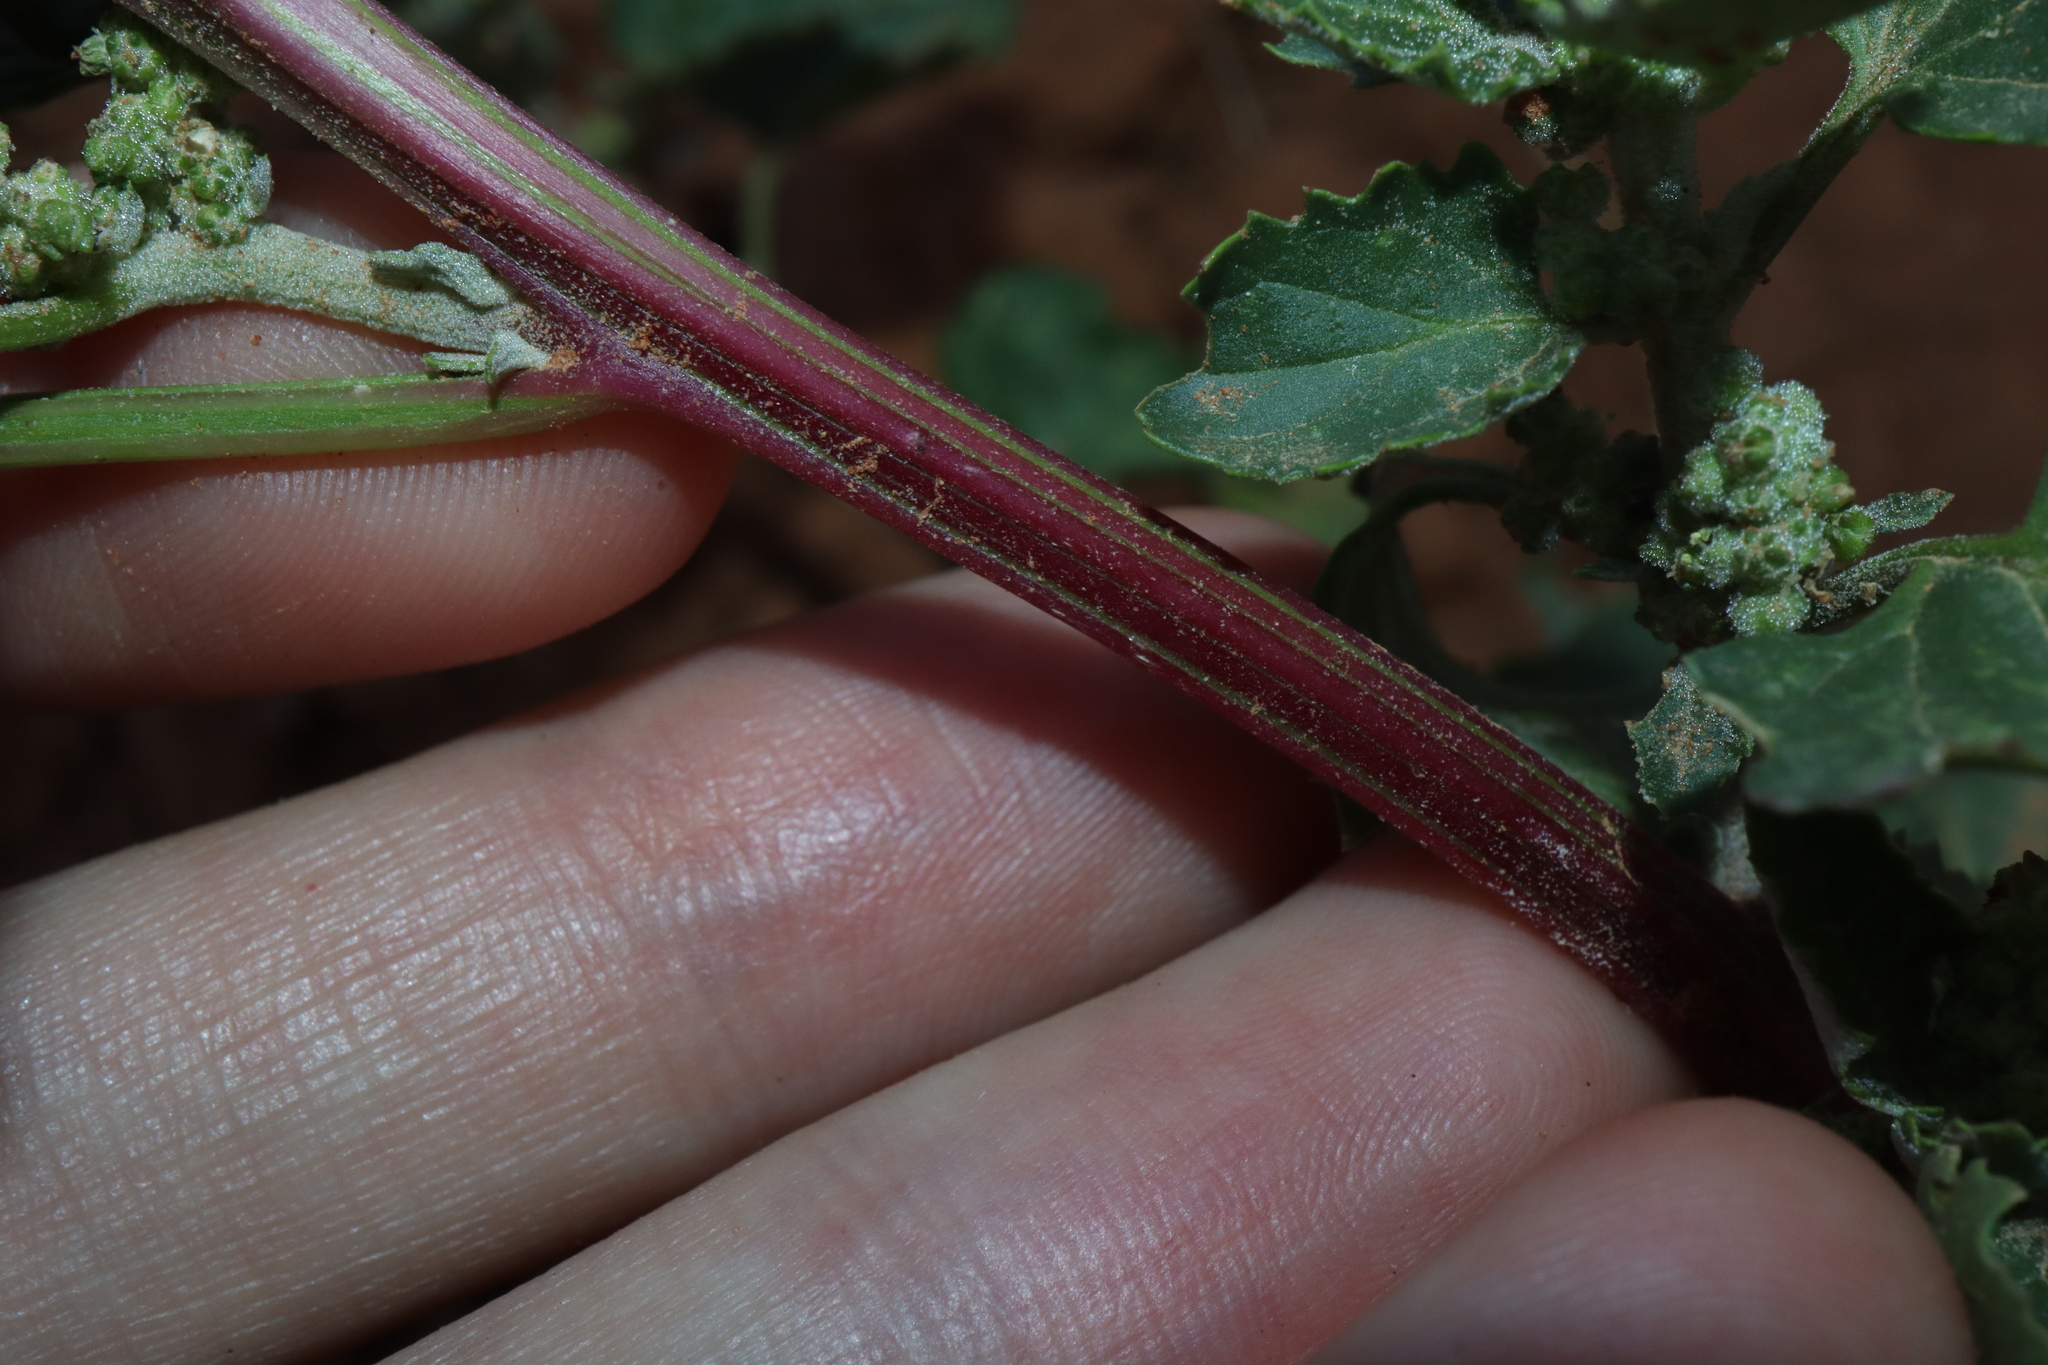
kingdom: Plantae
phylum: Tracheophyta
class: Magnoliopsida
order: Caryophyllales
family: Amaranthaceae
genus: Chenopodiastrum
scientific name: Chenopodiastrum murale
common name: Sowbane
